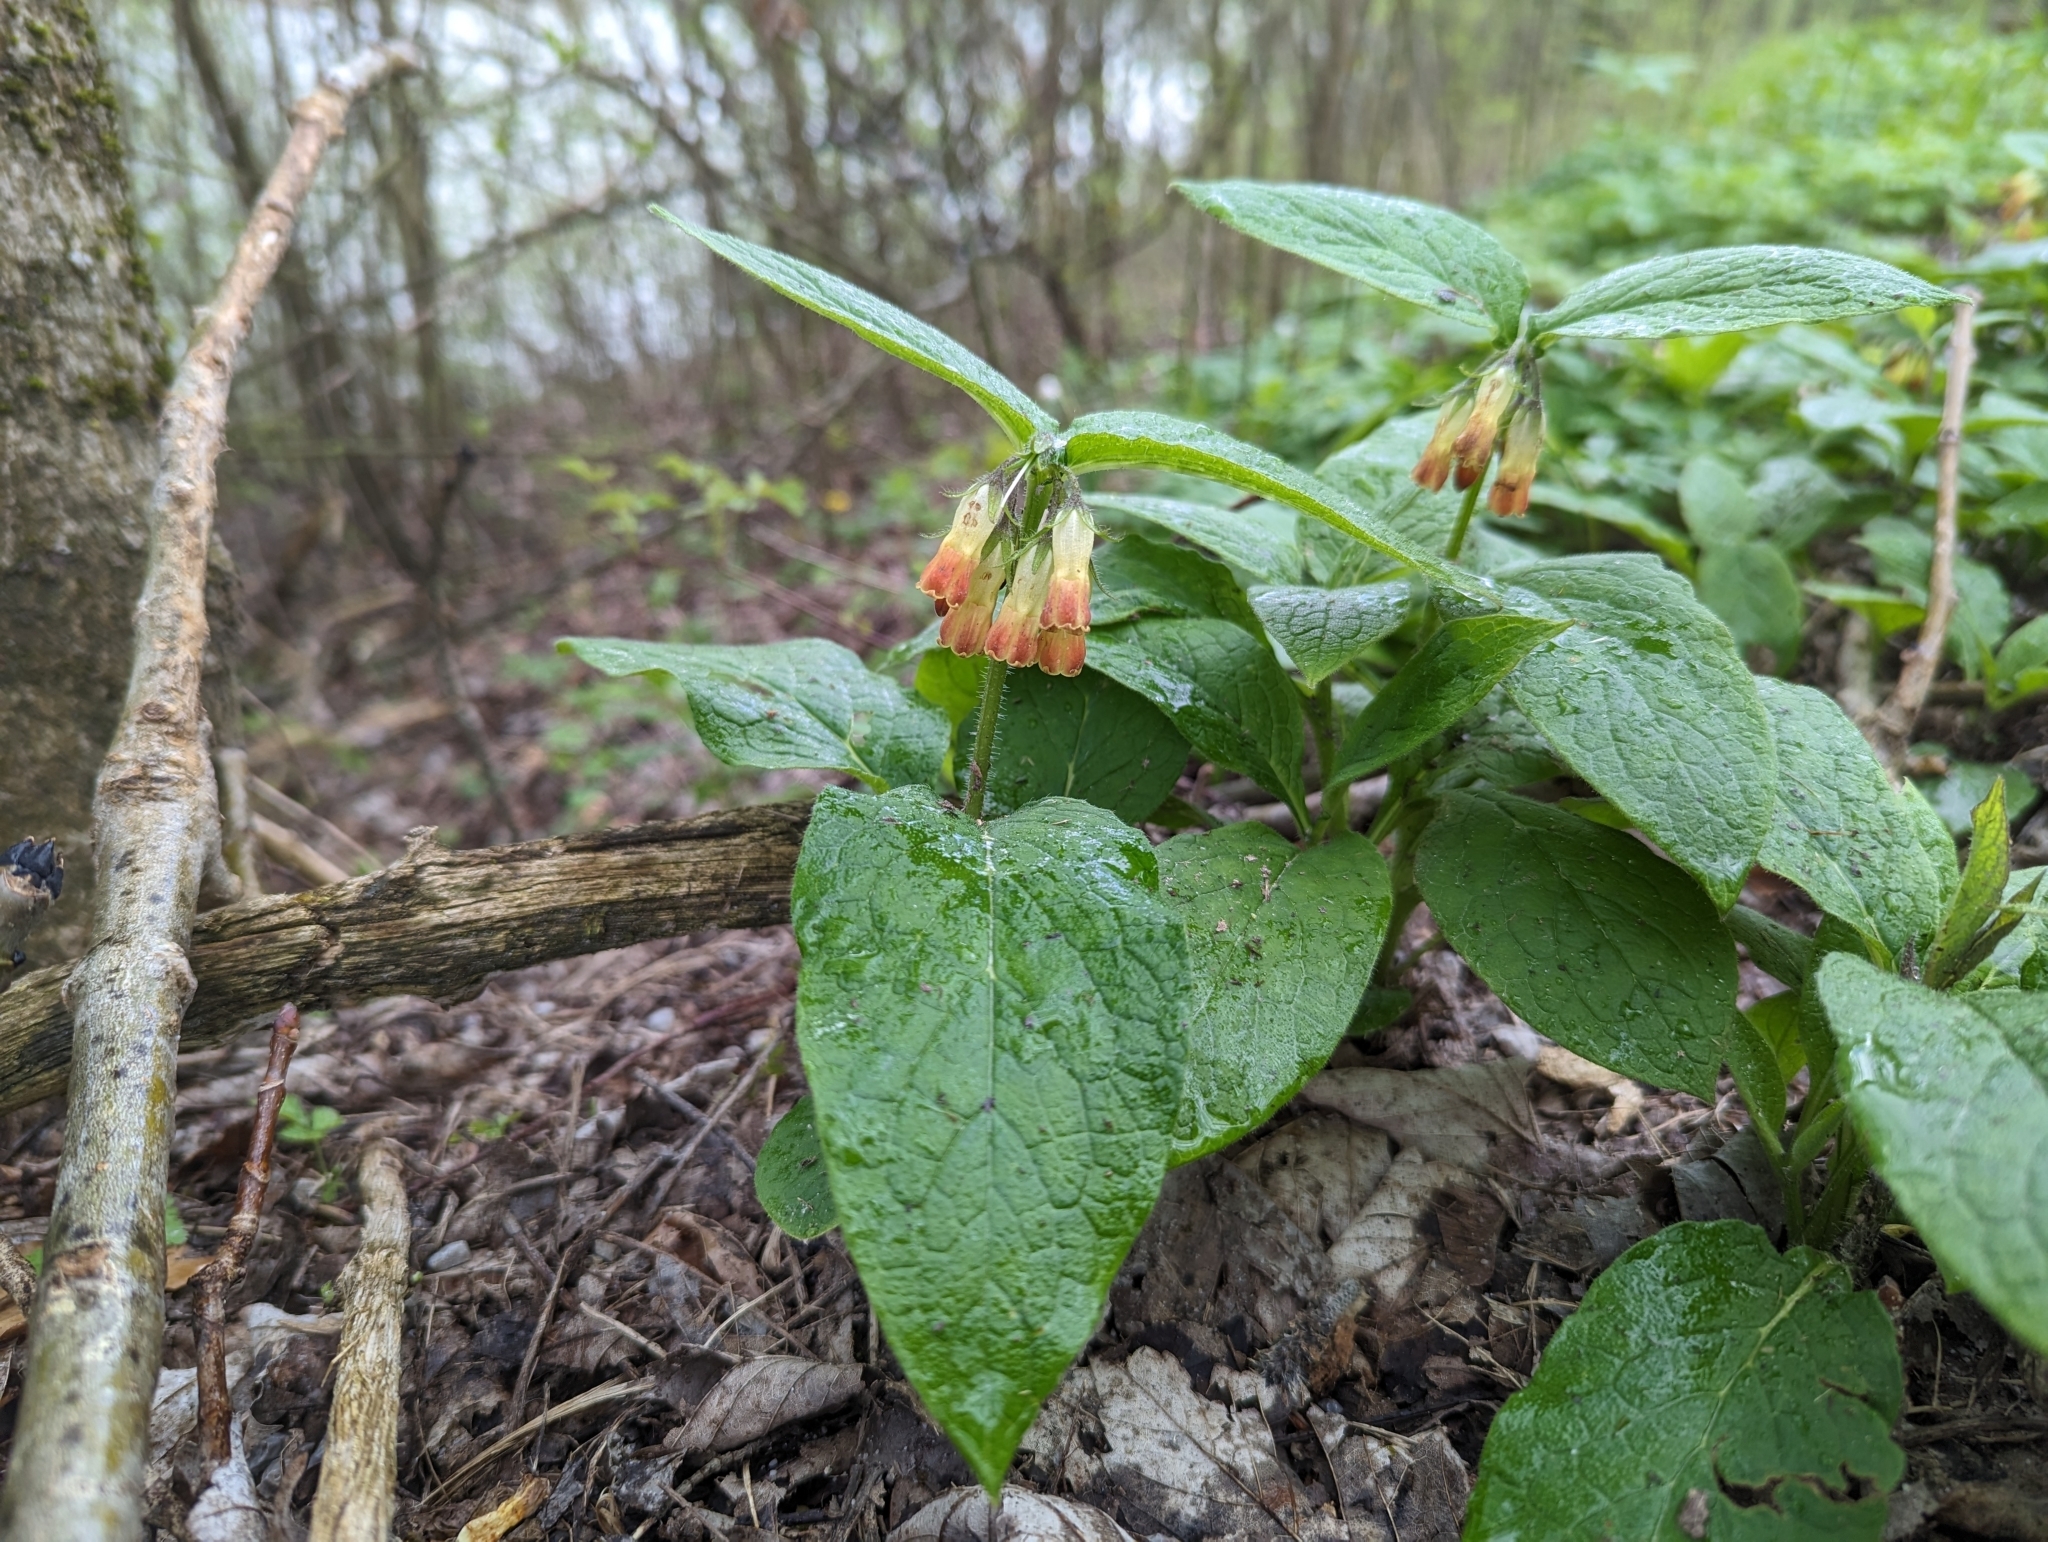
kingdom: Plantae
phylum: Tracheophyta
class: Magnoliopsida
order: Boraginales
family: Boraginaceae
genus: Symphytum
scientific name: Symphytum tuberosum
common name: Tuberous comfrey
